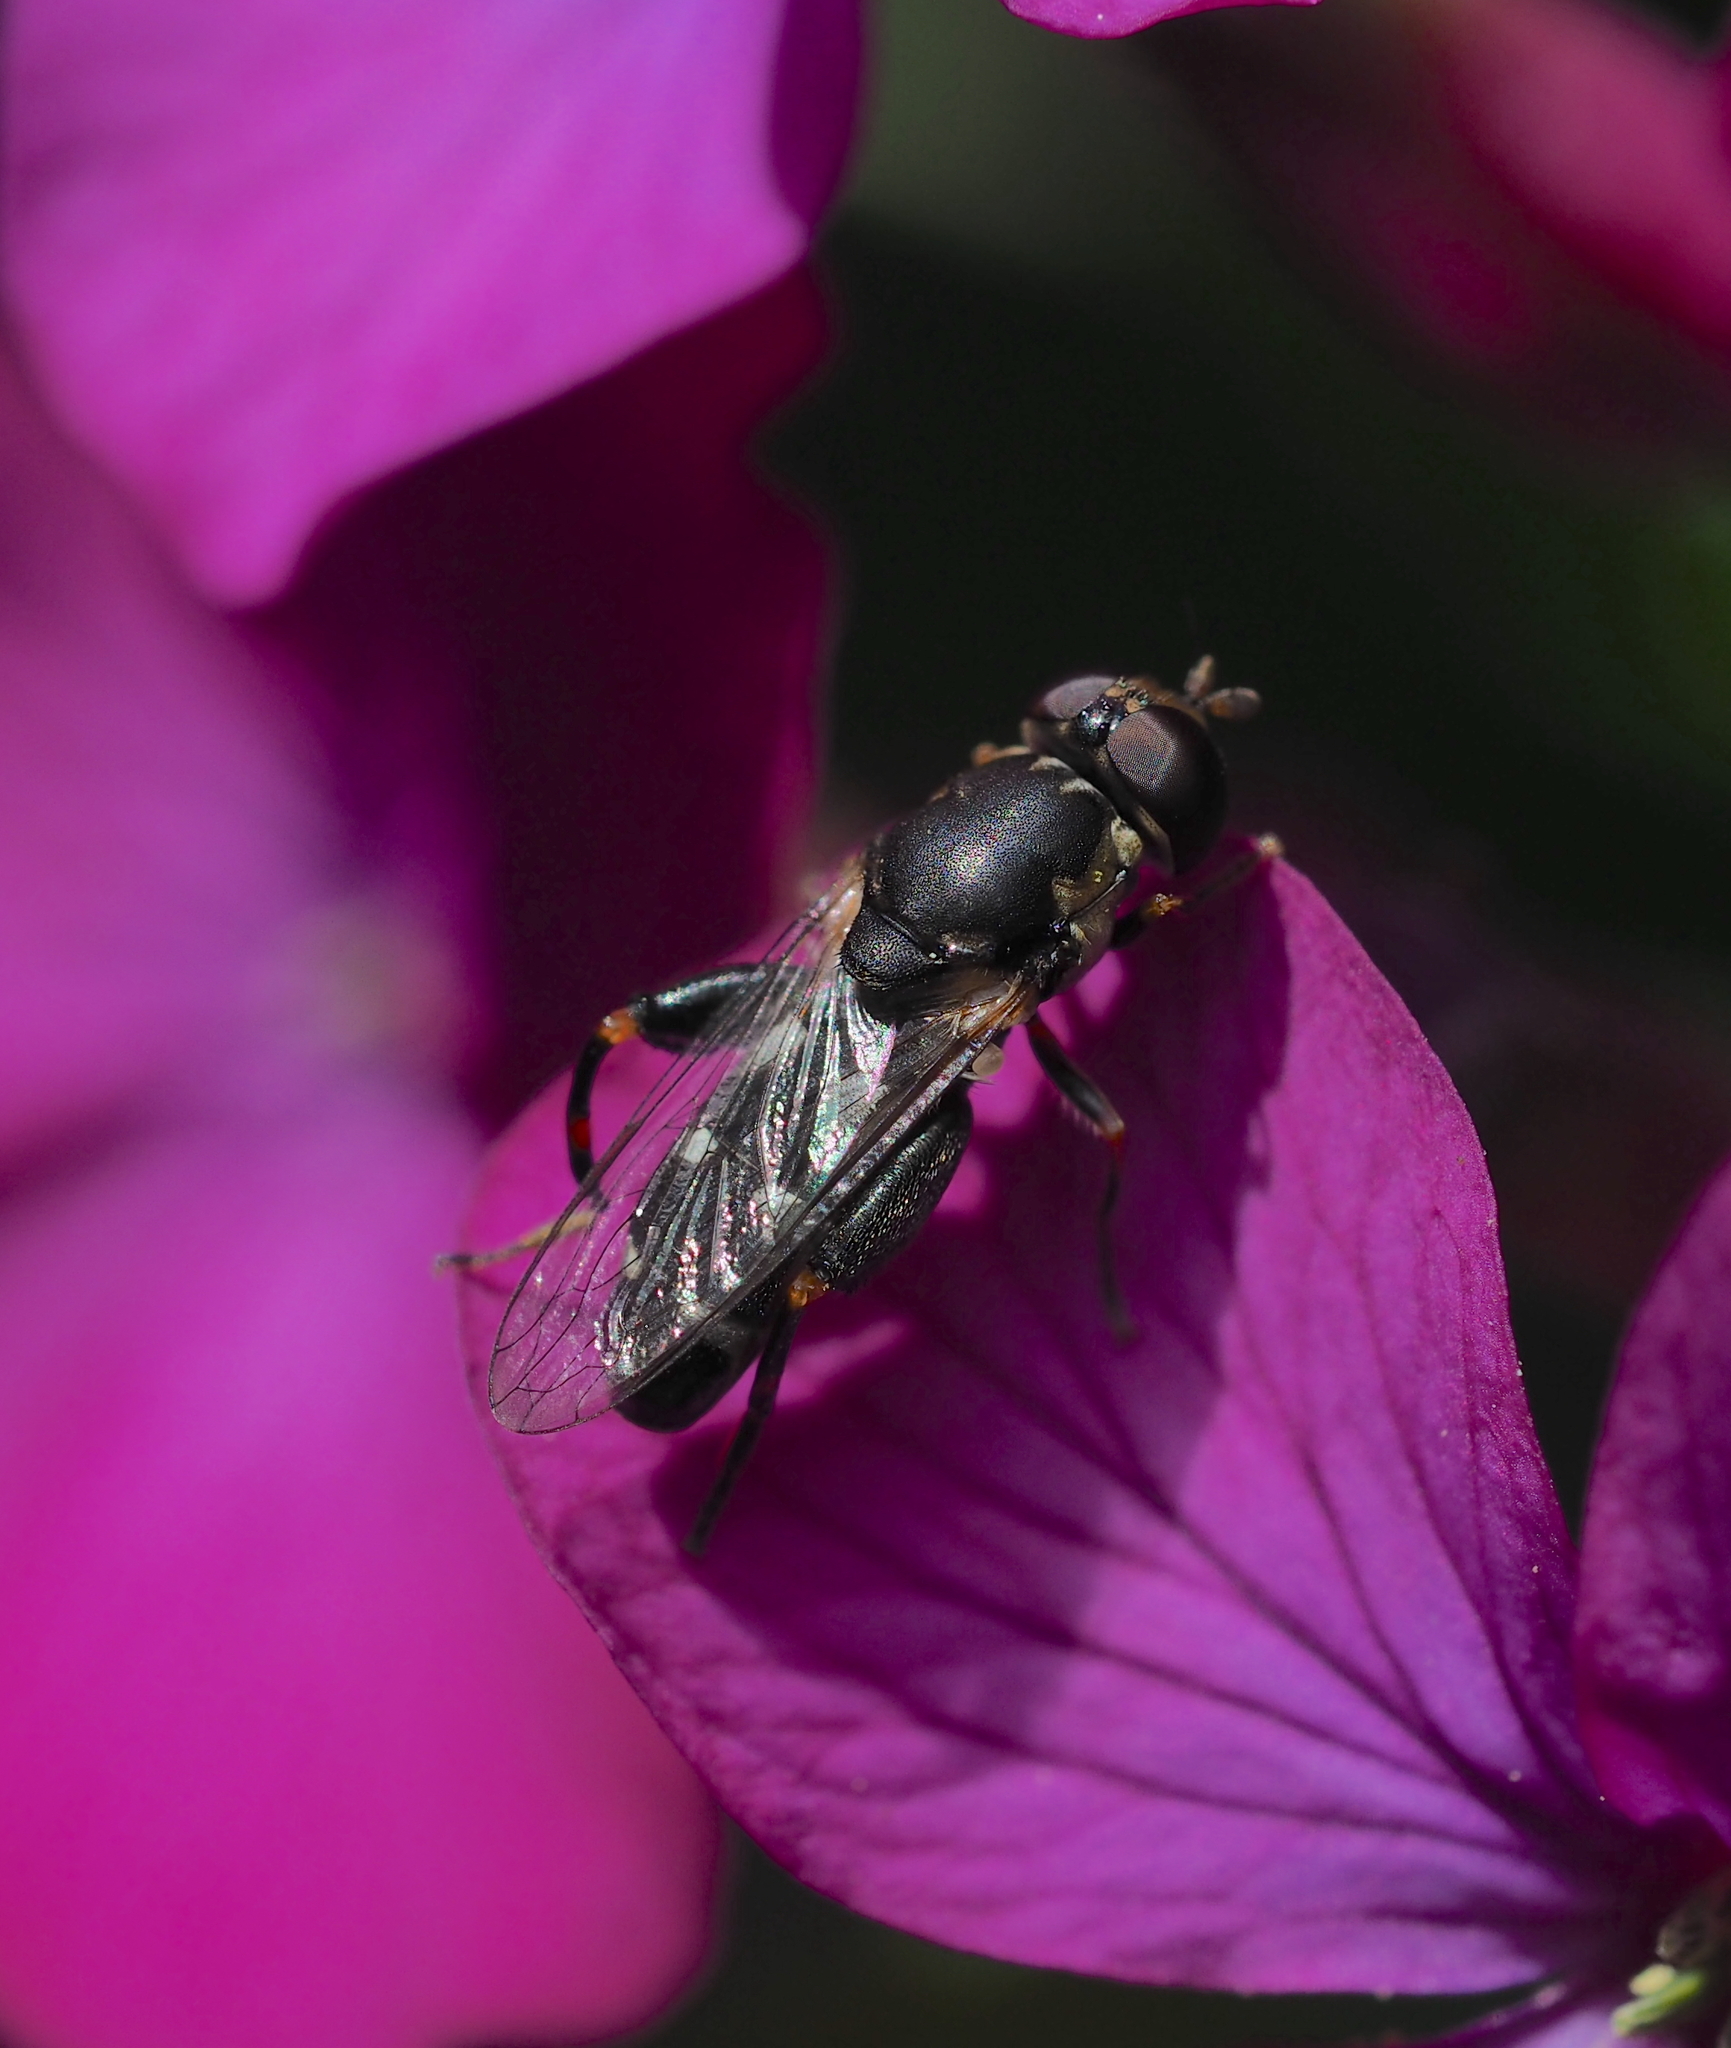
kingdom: Animalia
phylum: Arthropoda
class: Insecta
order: Diptera
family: Syrphidae
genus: Syritta
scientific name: Syritta pipiens
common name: Hover fly
